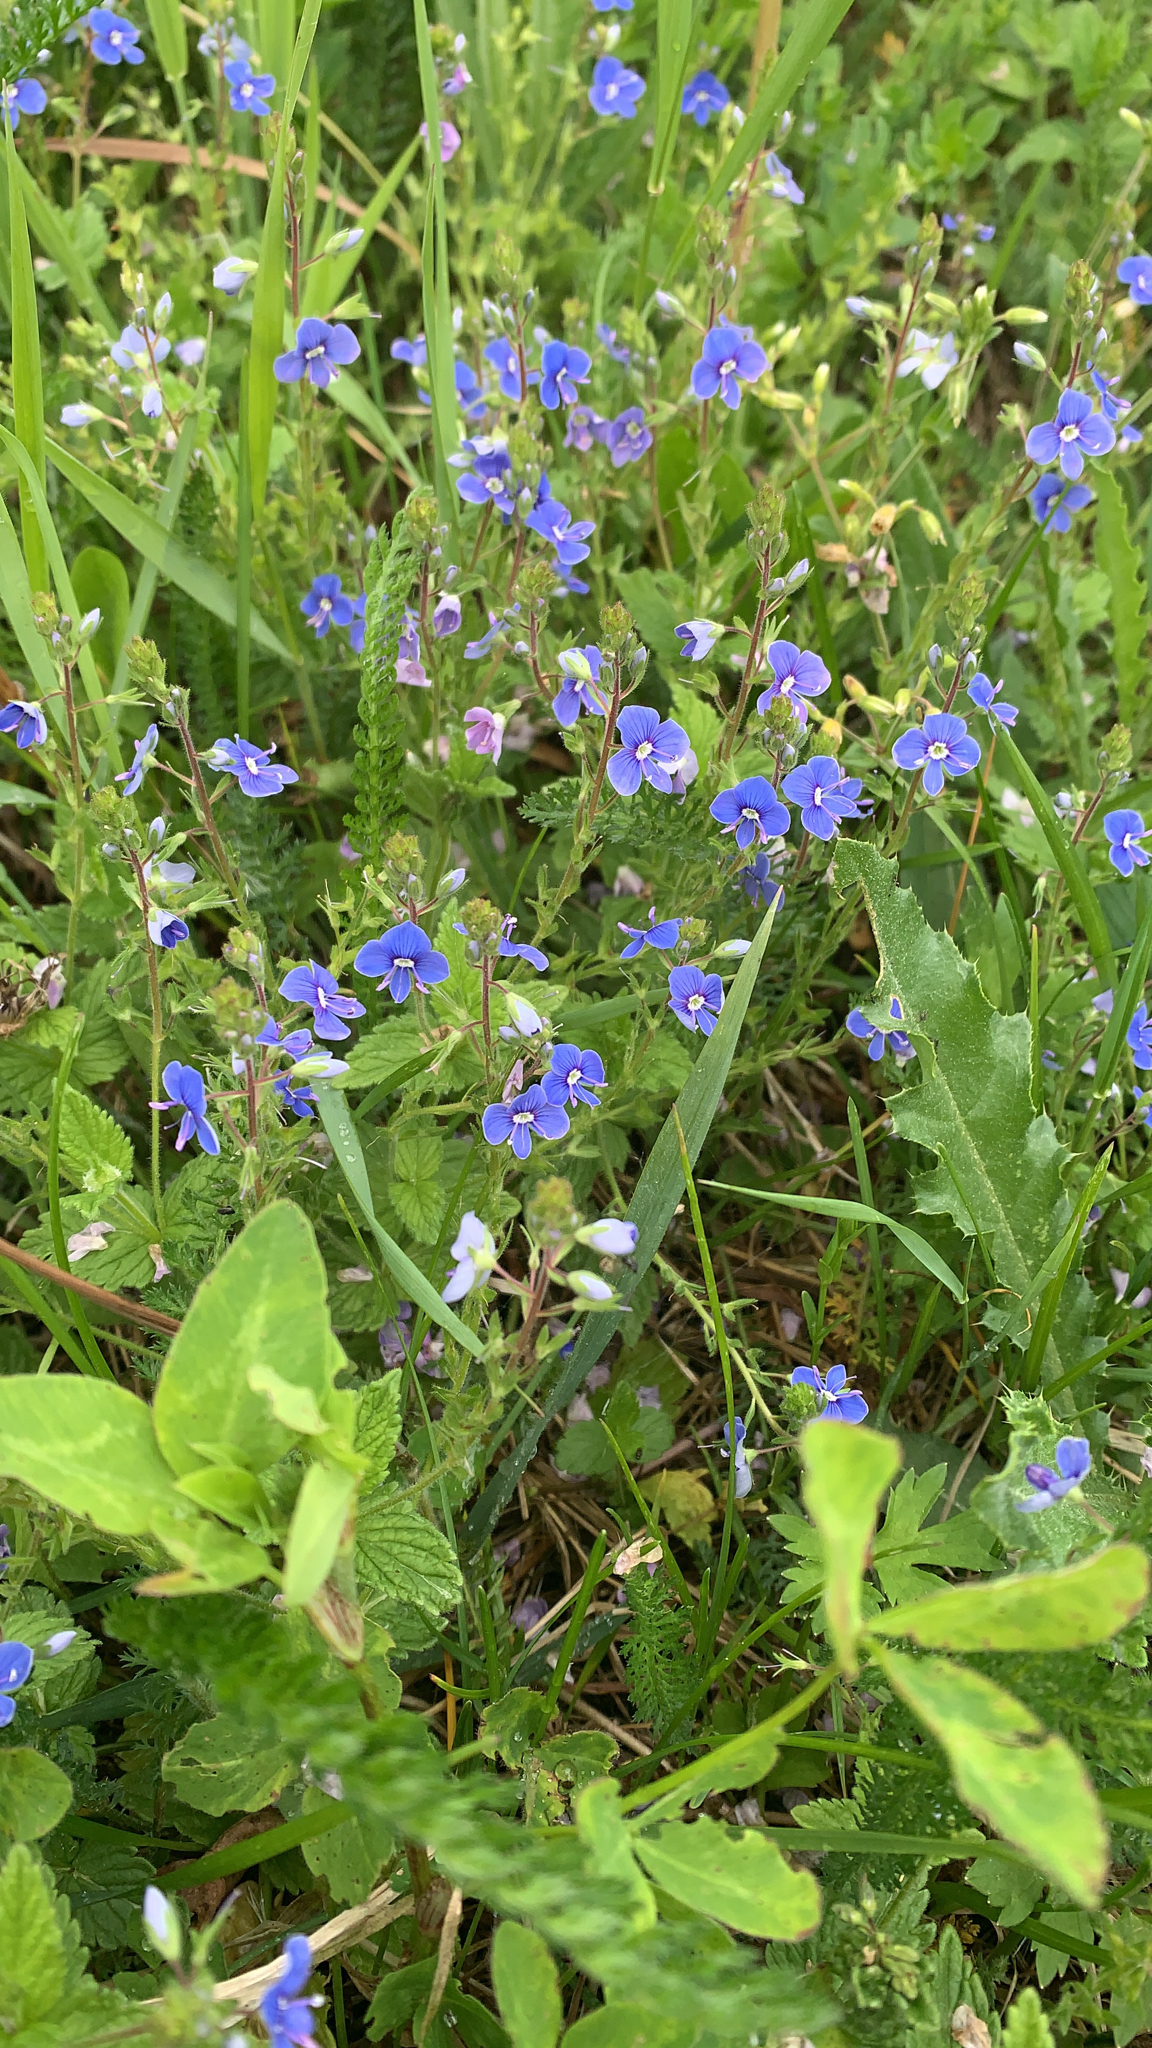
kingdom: Plantae
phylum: Tracheophyta
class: Magnoliopsida
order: Lamiales
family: Plantaginaceae
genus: Veronica
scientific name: Veronica chamaedrys
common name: Germander speedwell
